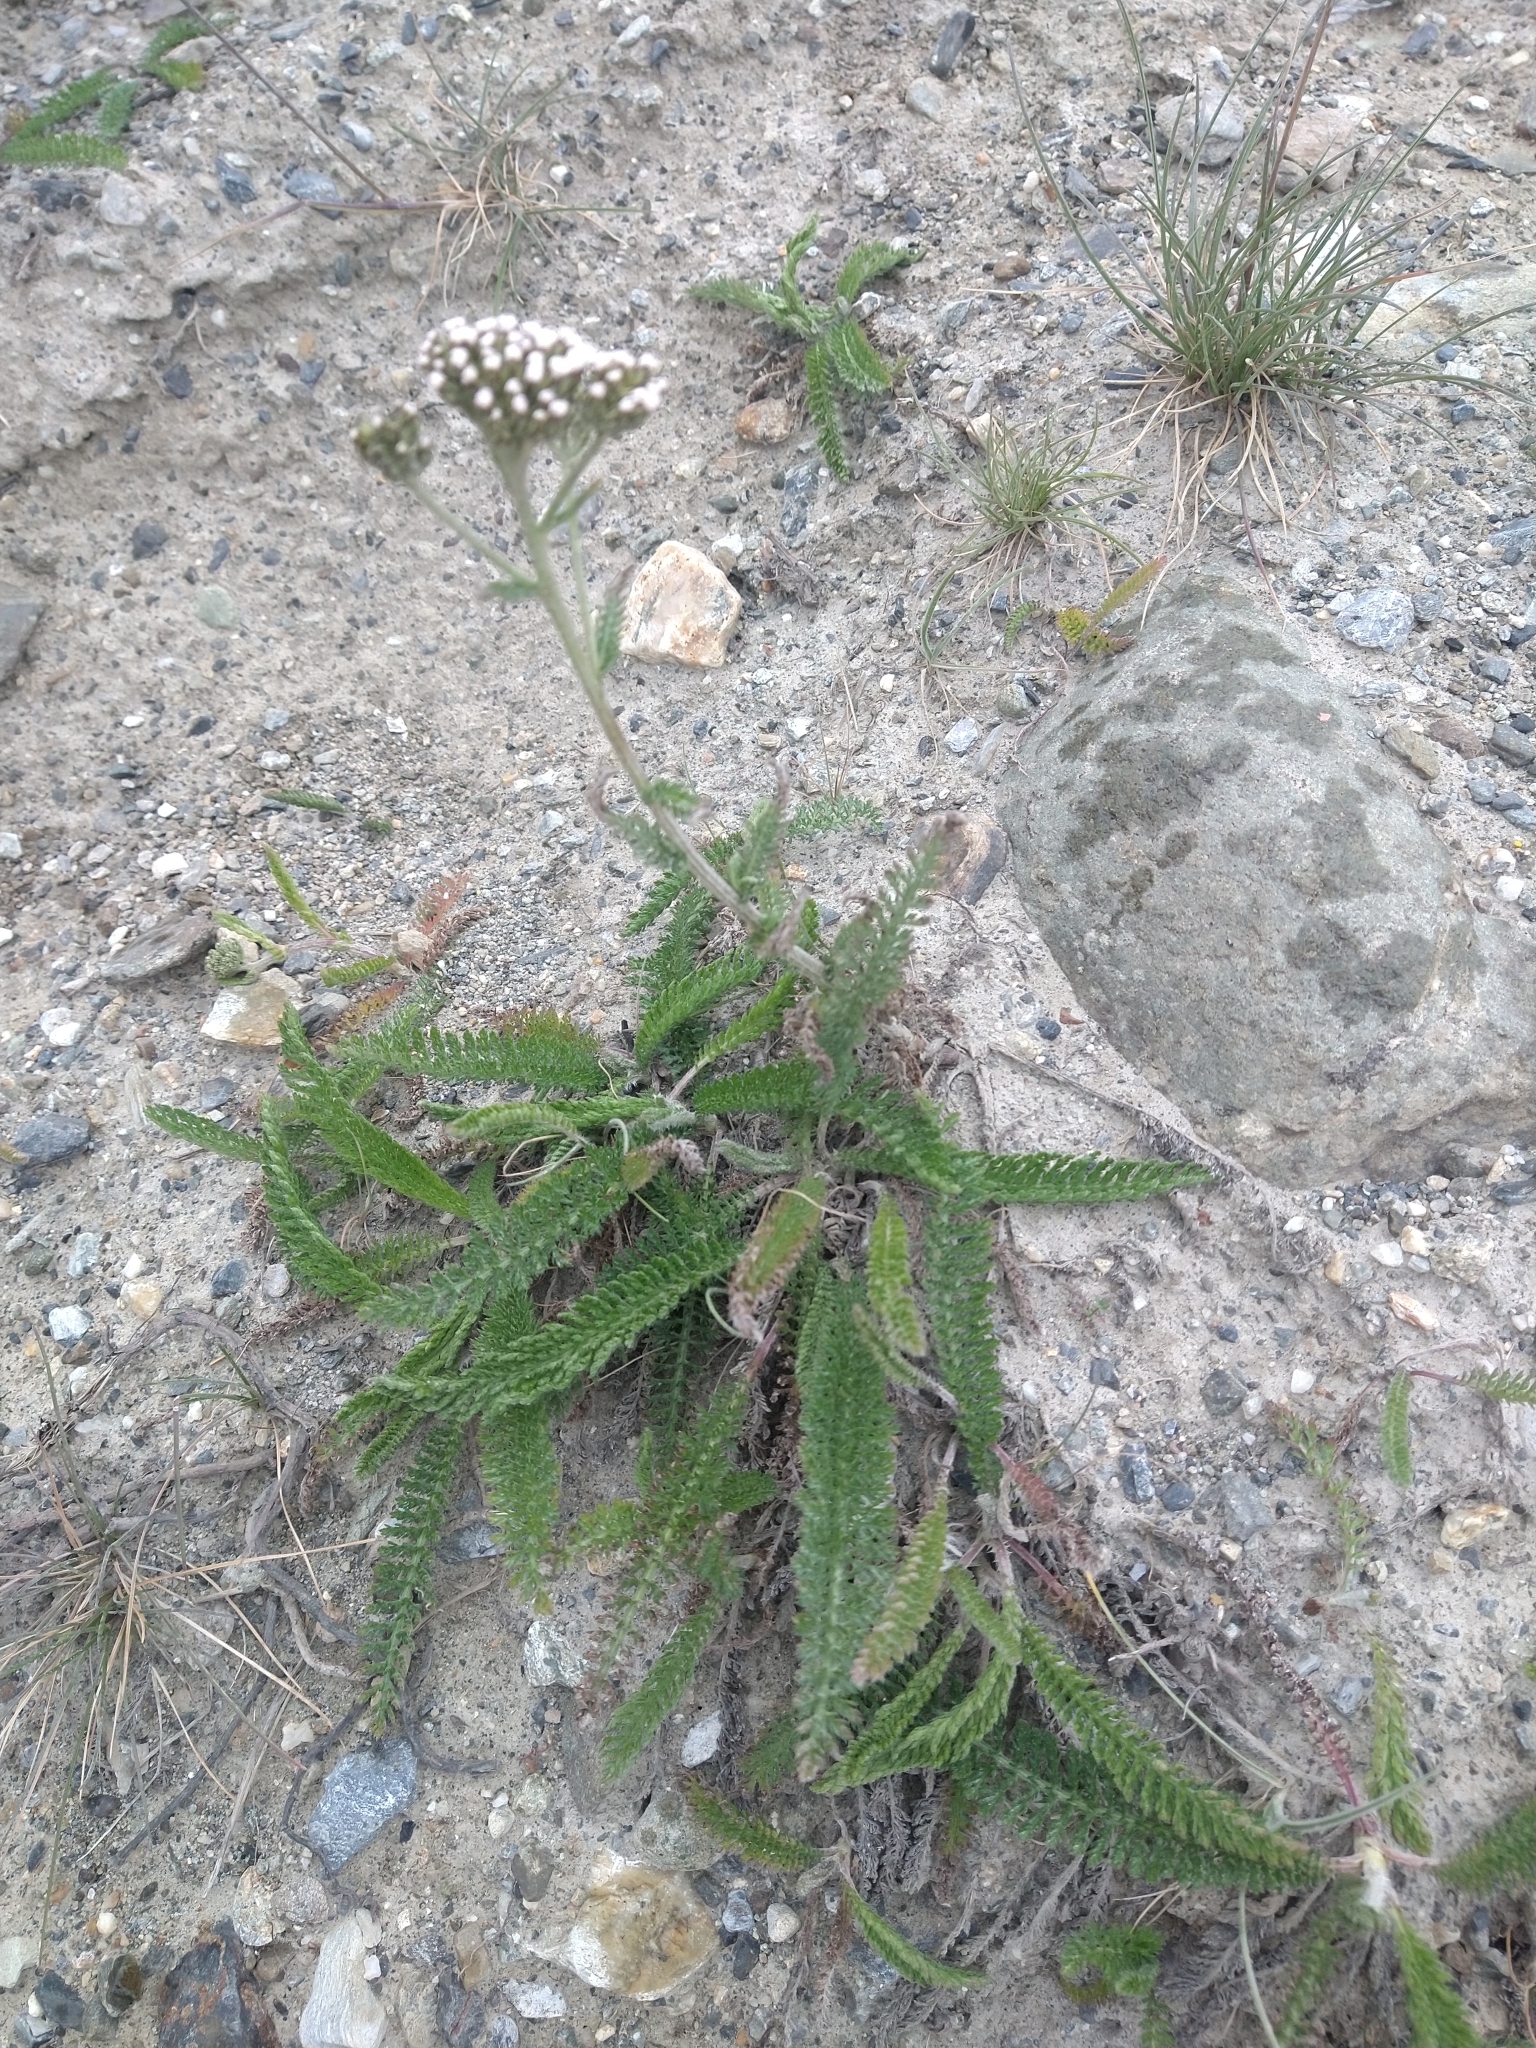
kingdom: Plantae
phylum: Tracheophyta
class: Magnoliopsida
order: Asterales
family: Asteraceae
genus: Achillea
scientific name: Achillea millefolium
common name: Yarrow
